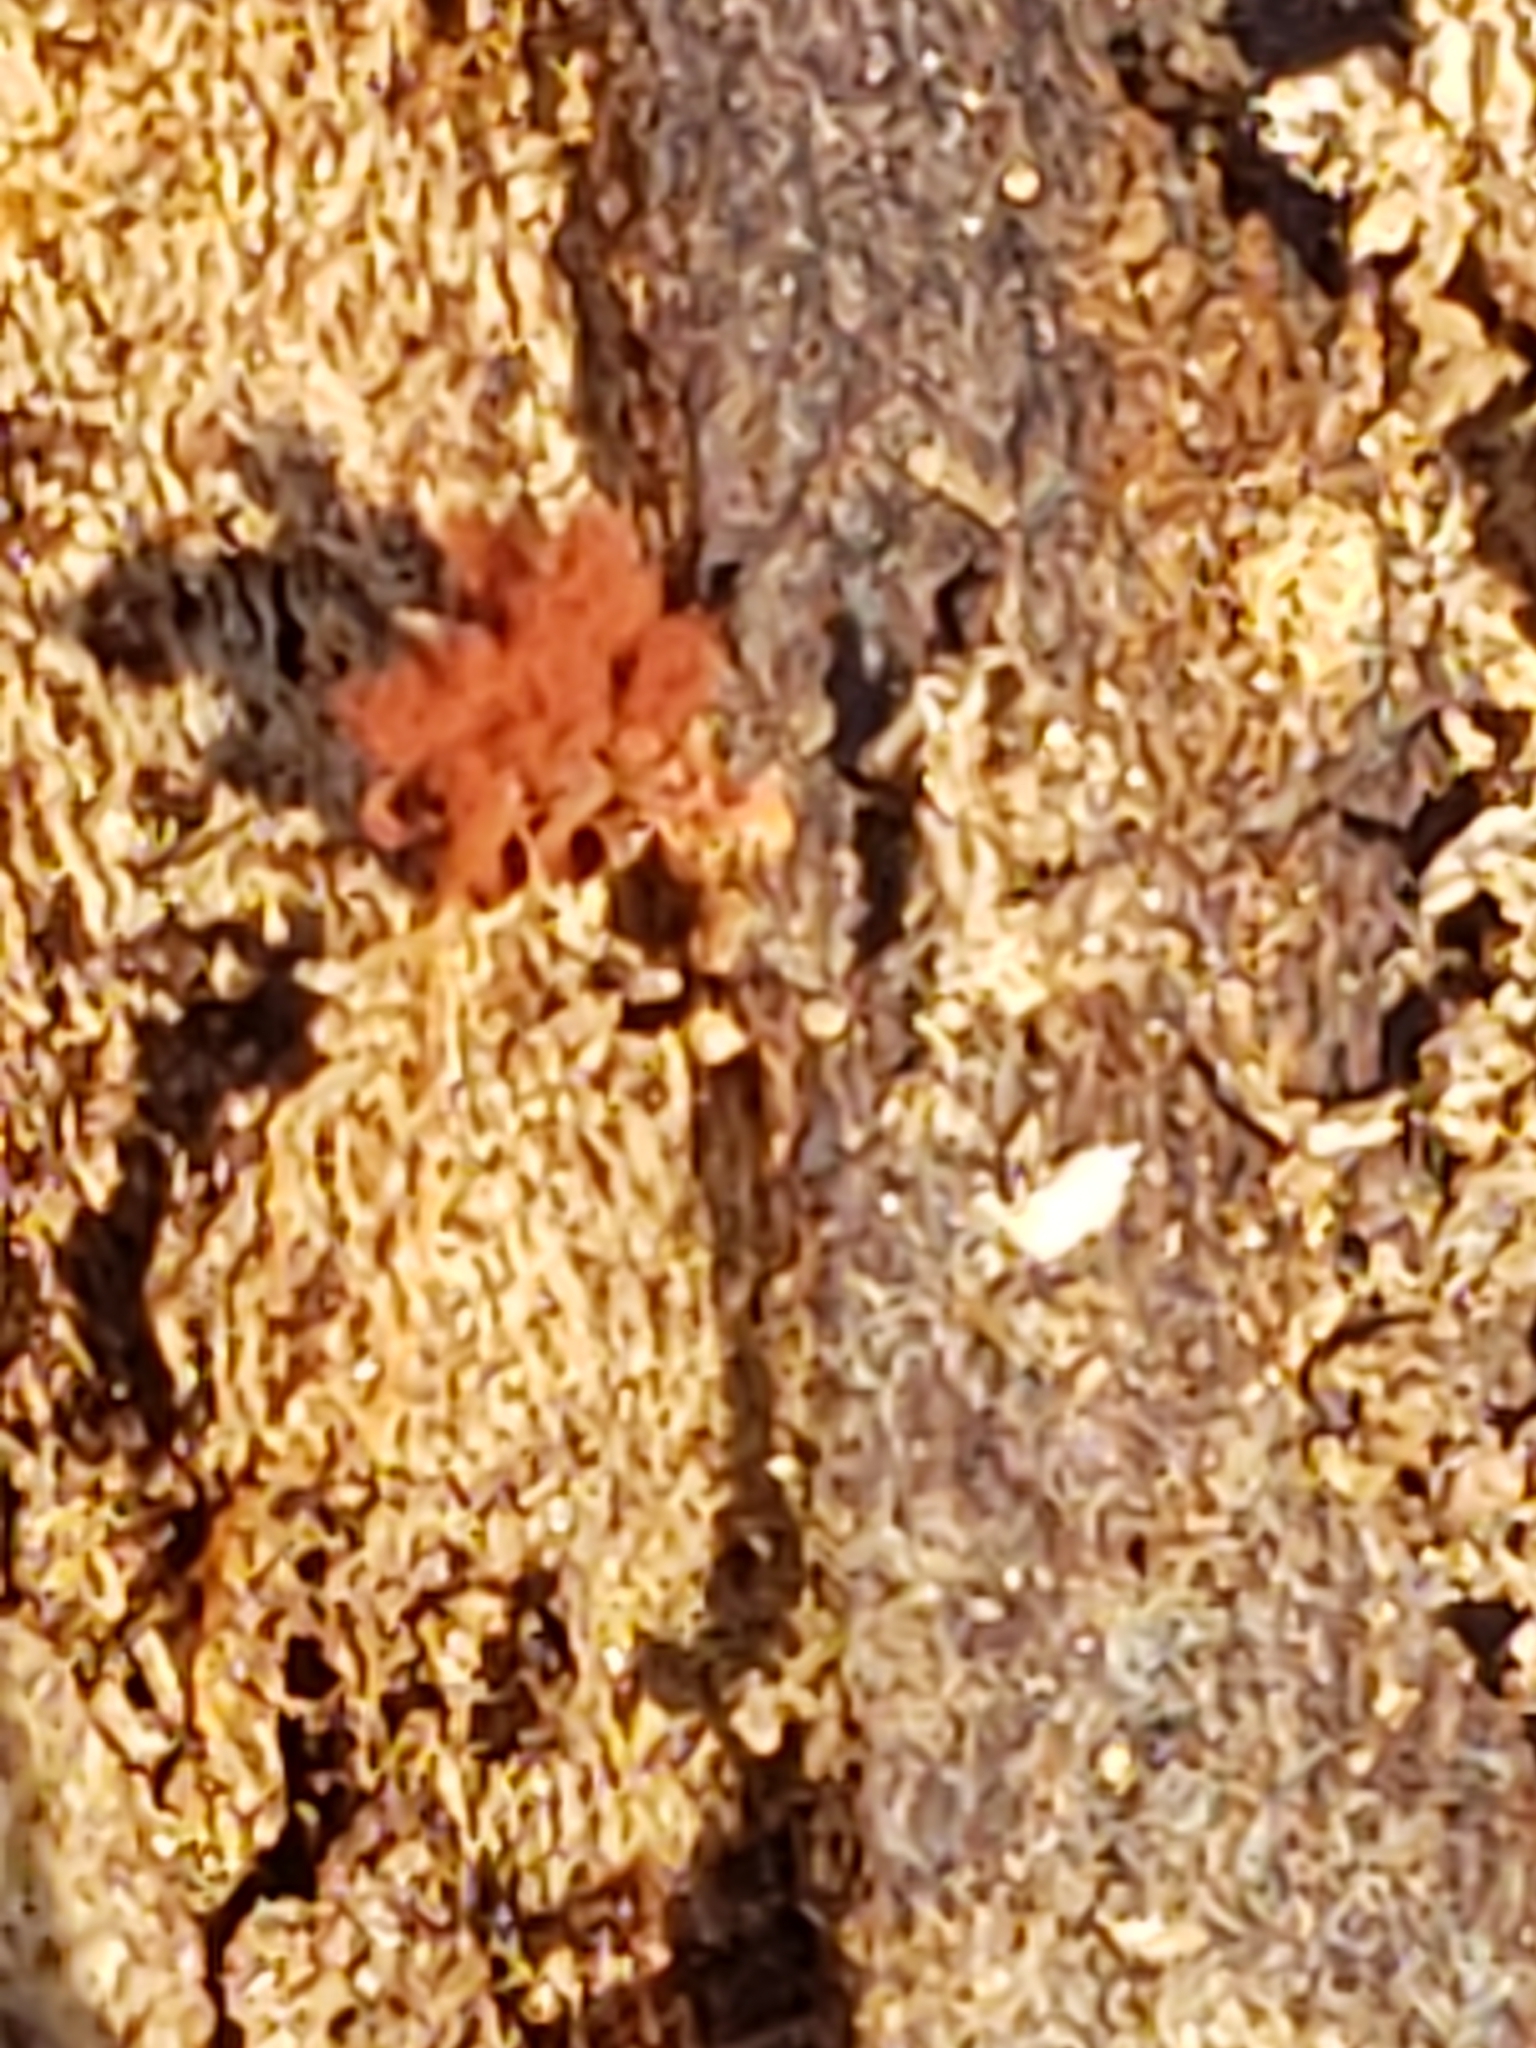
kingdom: Protozoa
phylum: Mycetozoa
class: Myxomycetes
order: Trichiales
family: Trichiaceae
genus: Metatrichia
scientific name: Metatrichia vesparia
